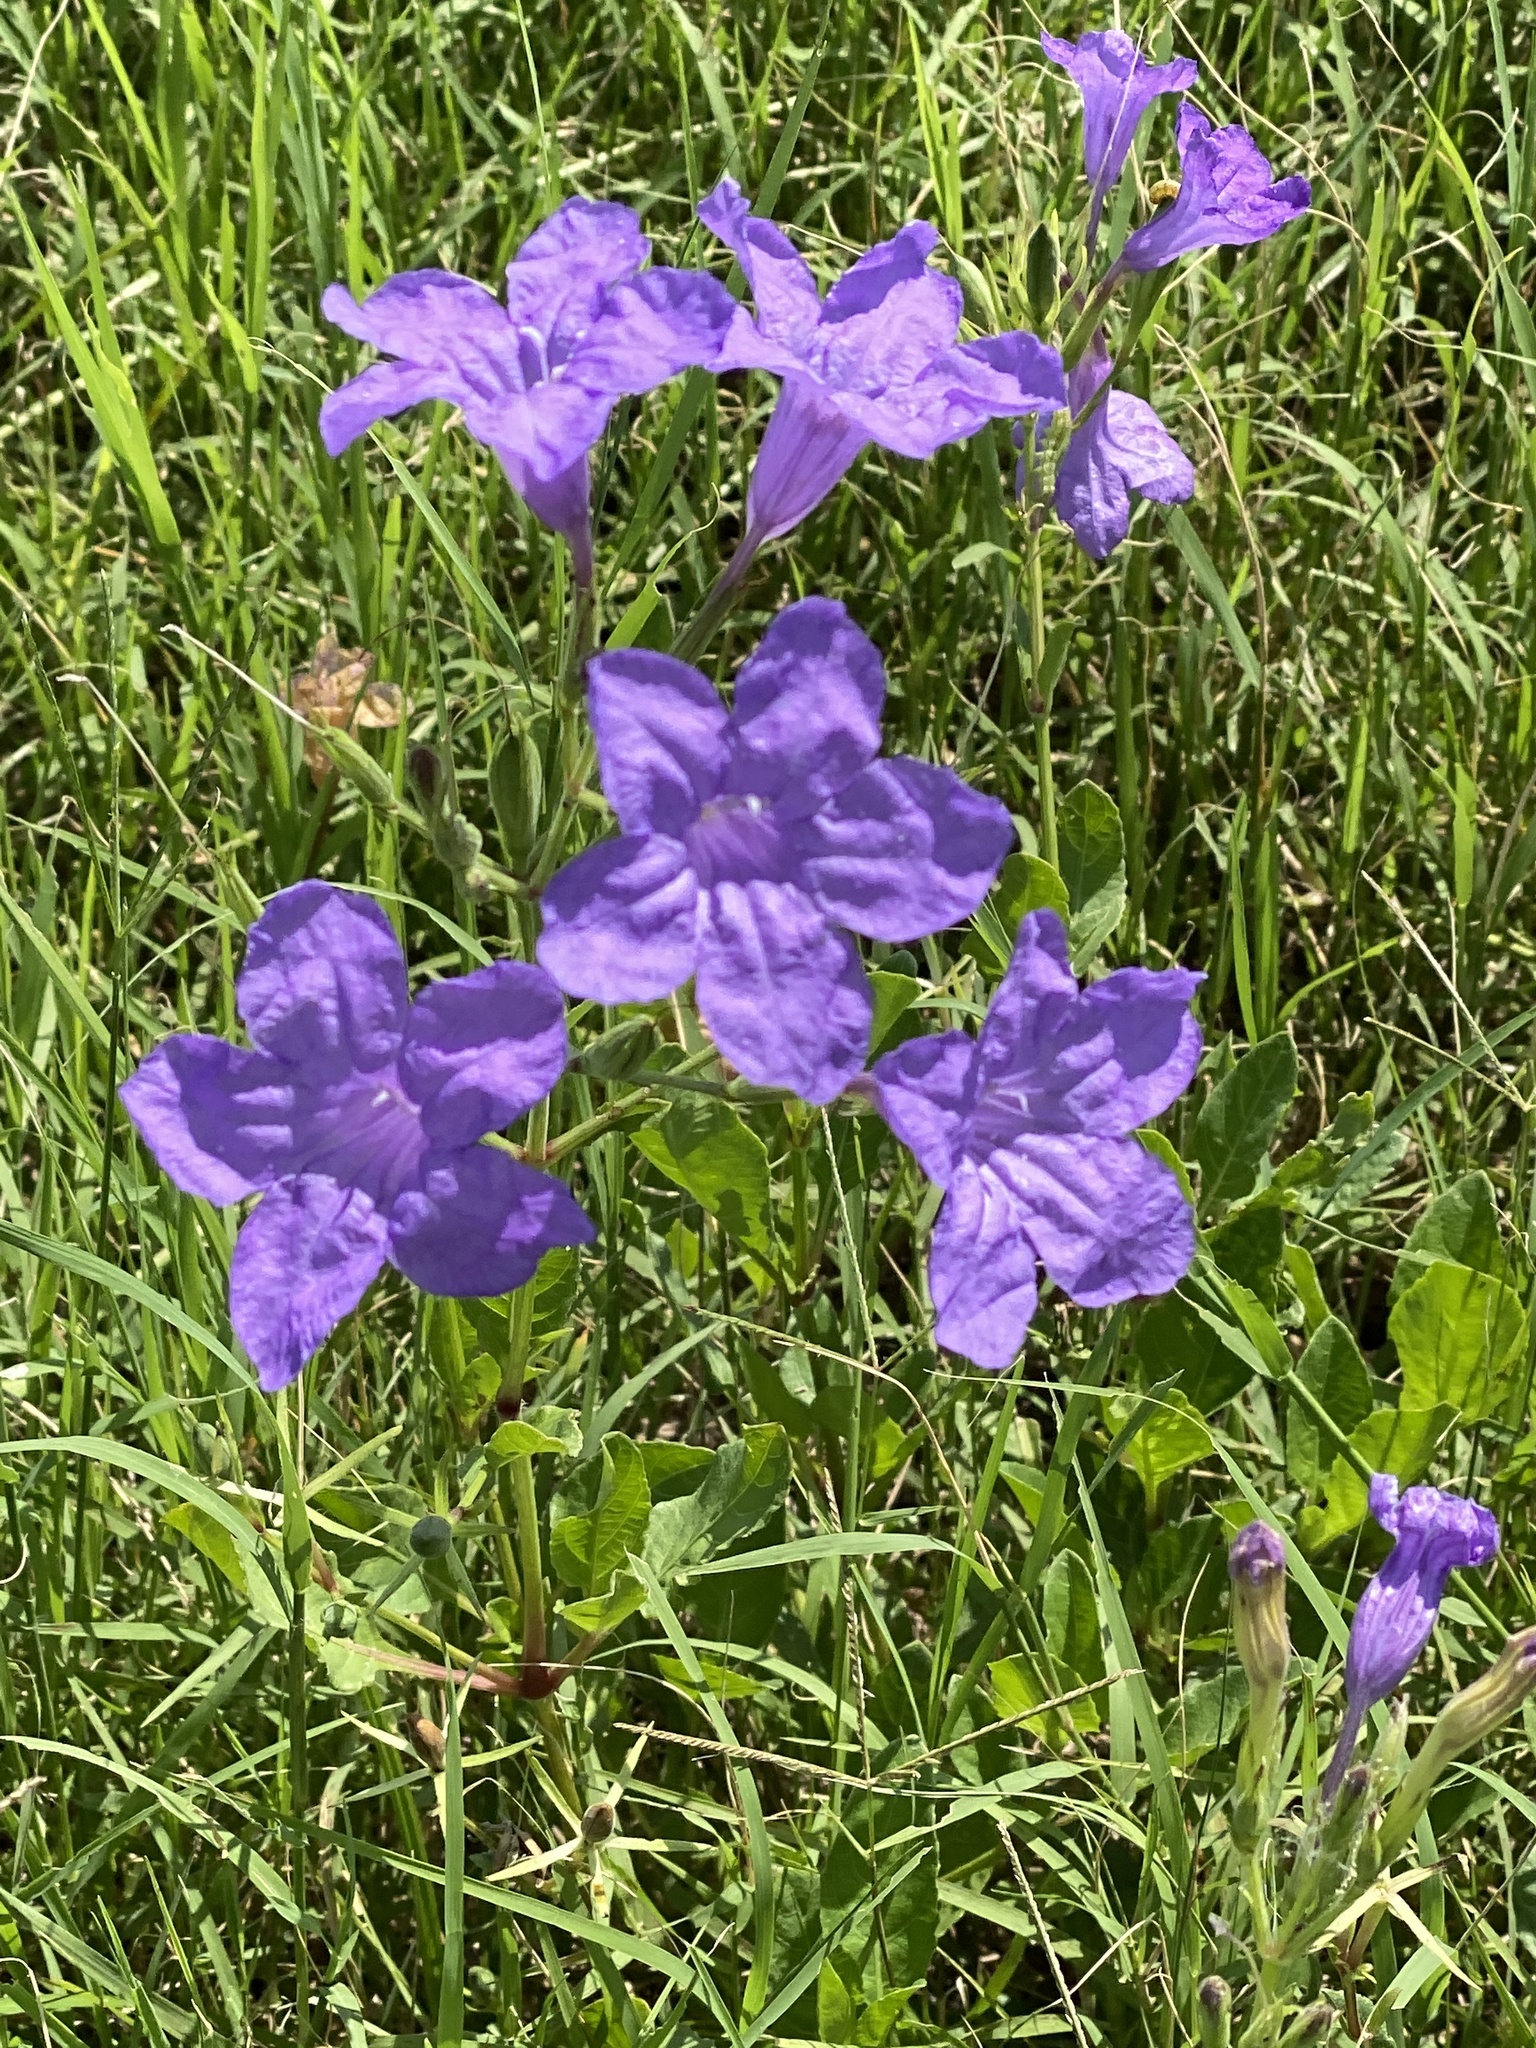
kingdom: Plantae
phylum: Tracheophyta
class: Magnoliopsida
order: Lamiales
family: Acanthaceae
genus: Ruellia
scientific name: Ruellia ciliatiflora
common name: Hairyflower wild petunia
